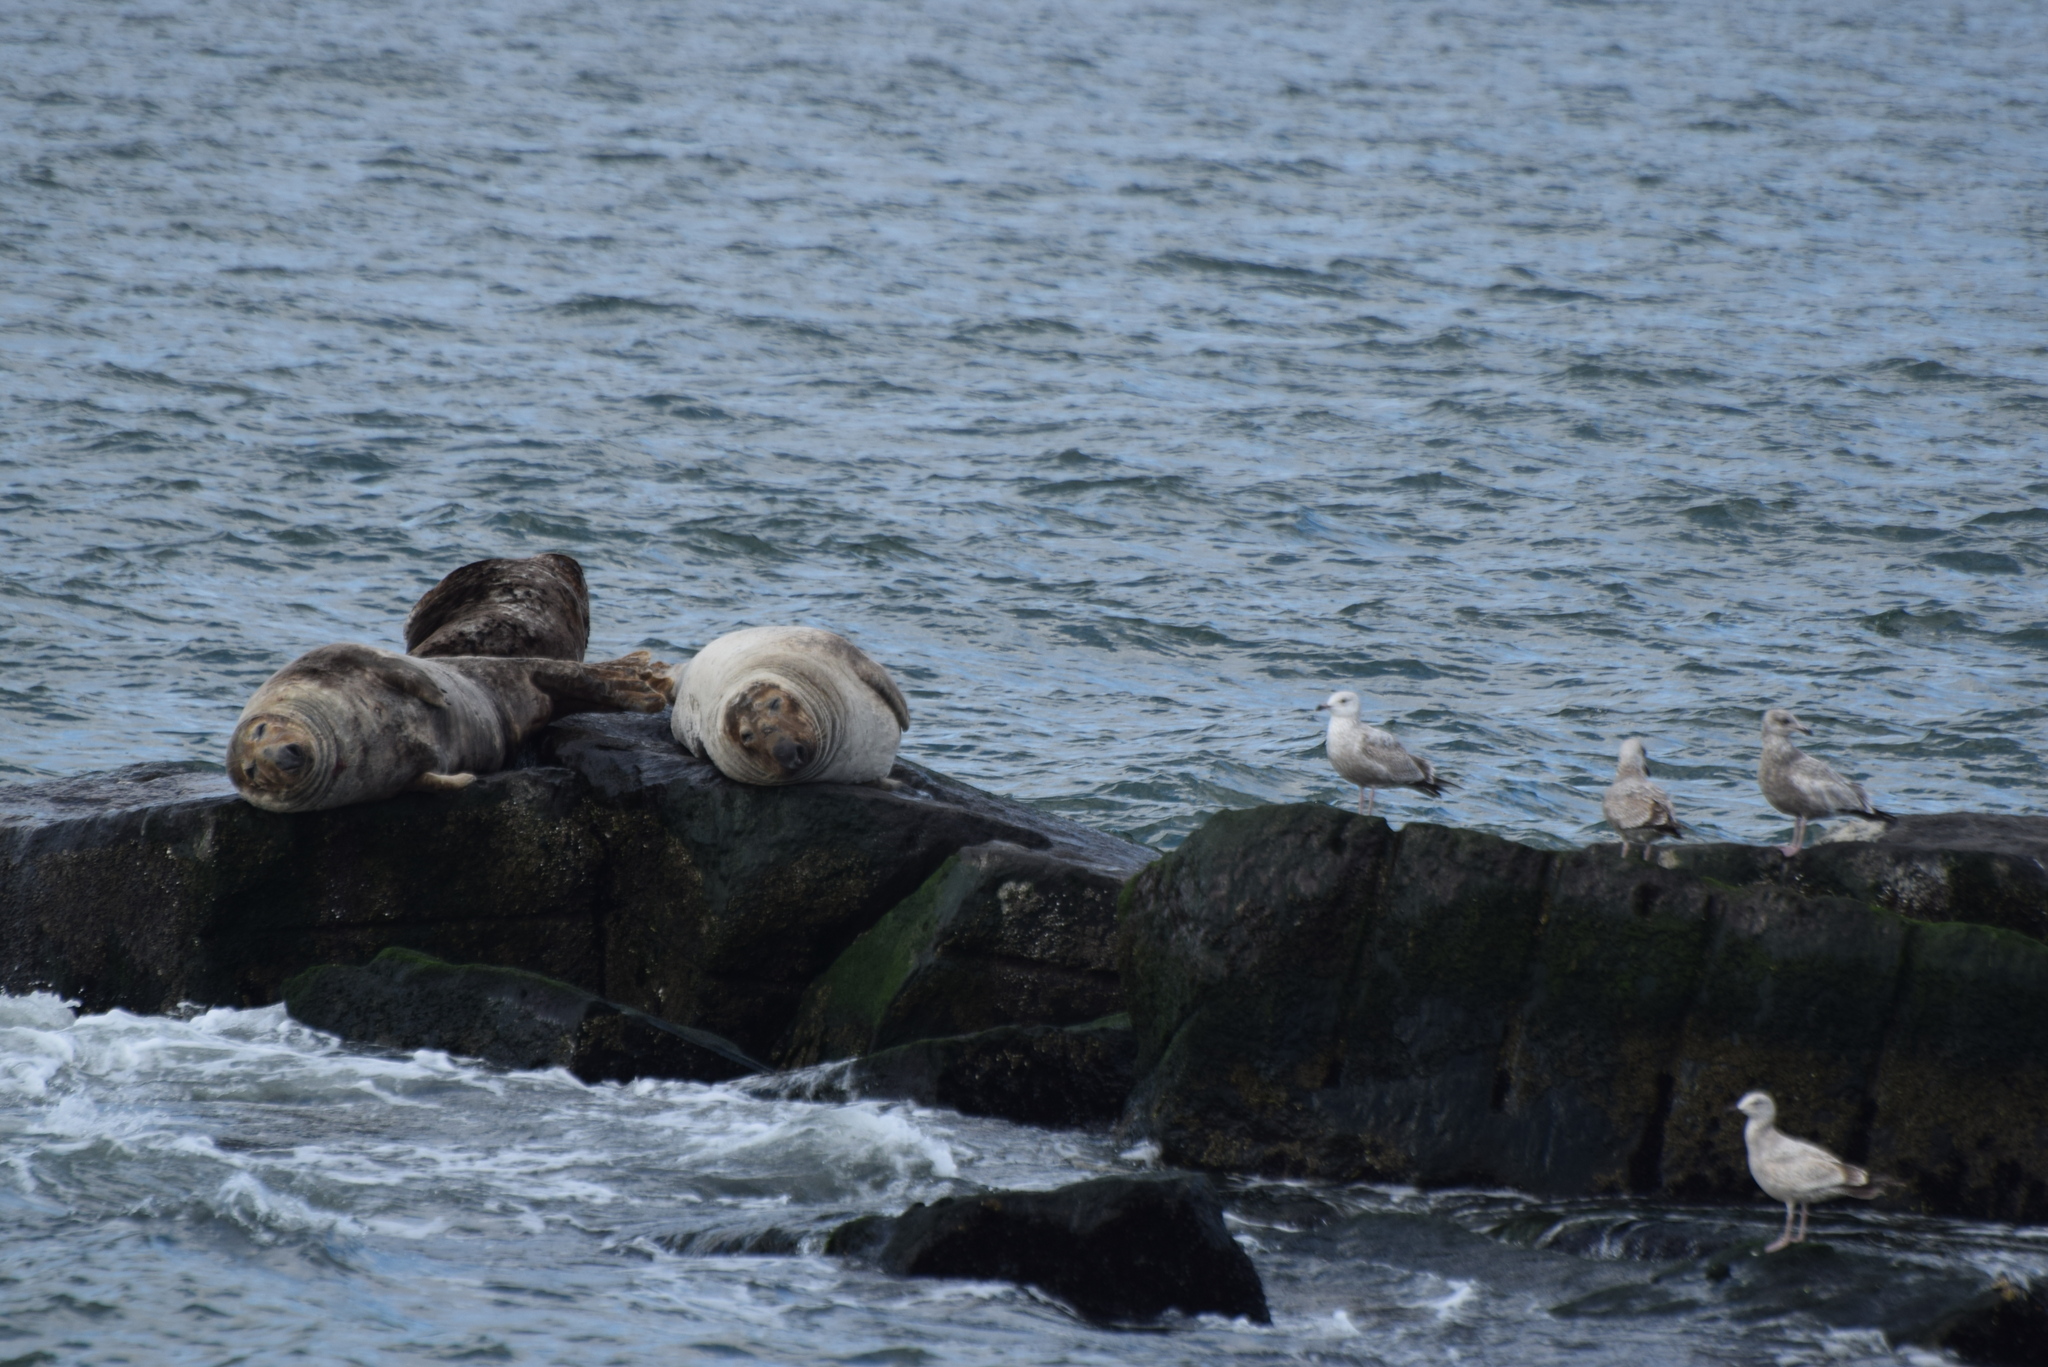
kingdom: Animalia
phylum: Chordata
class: Mammalia
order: Carnivora
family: Phocidae
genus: Halichoerus
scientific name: Halichoerus grypus
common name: Grey seal
